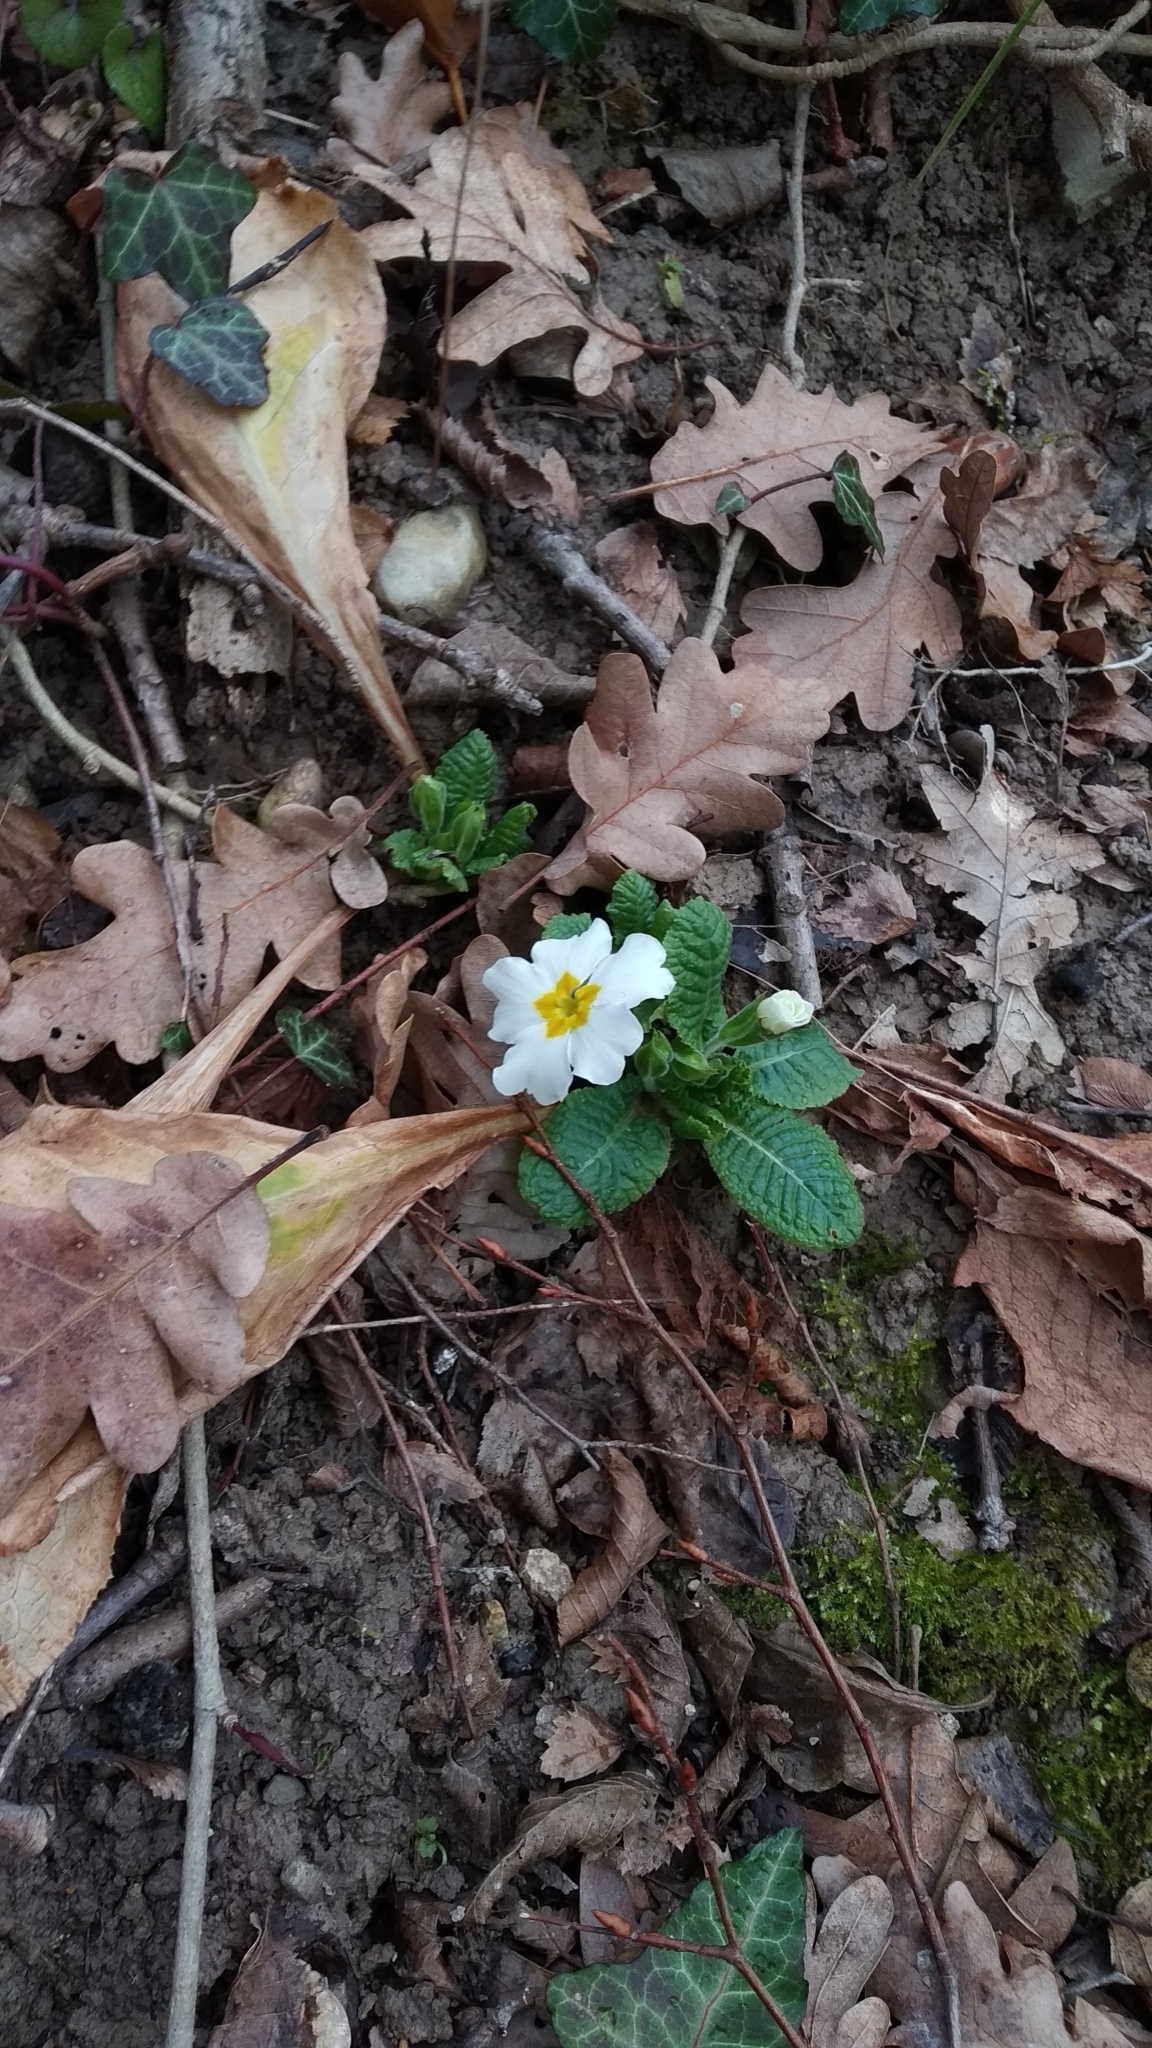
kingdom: Plantae
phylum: Tracheophyta
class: Magnoliopsida
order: Ericales
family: Primulaceae
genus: Primula
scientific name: Primula vulgaris
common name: Primrose
